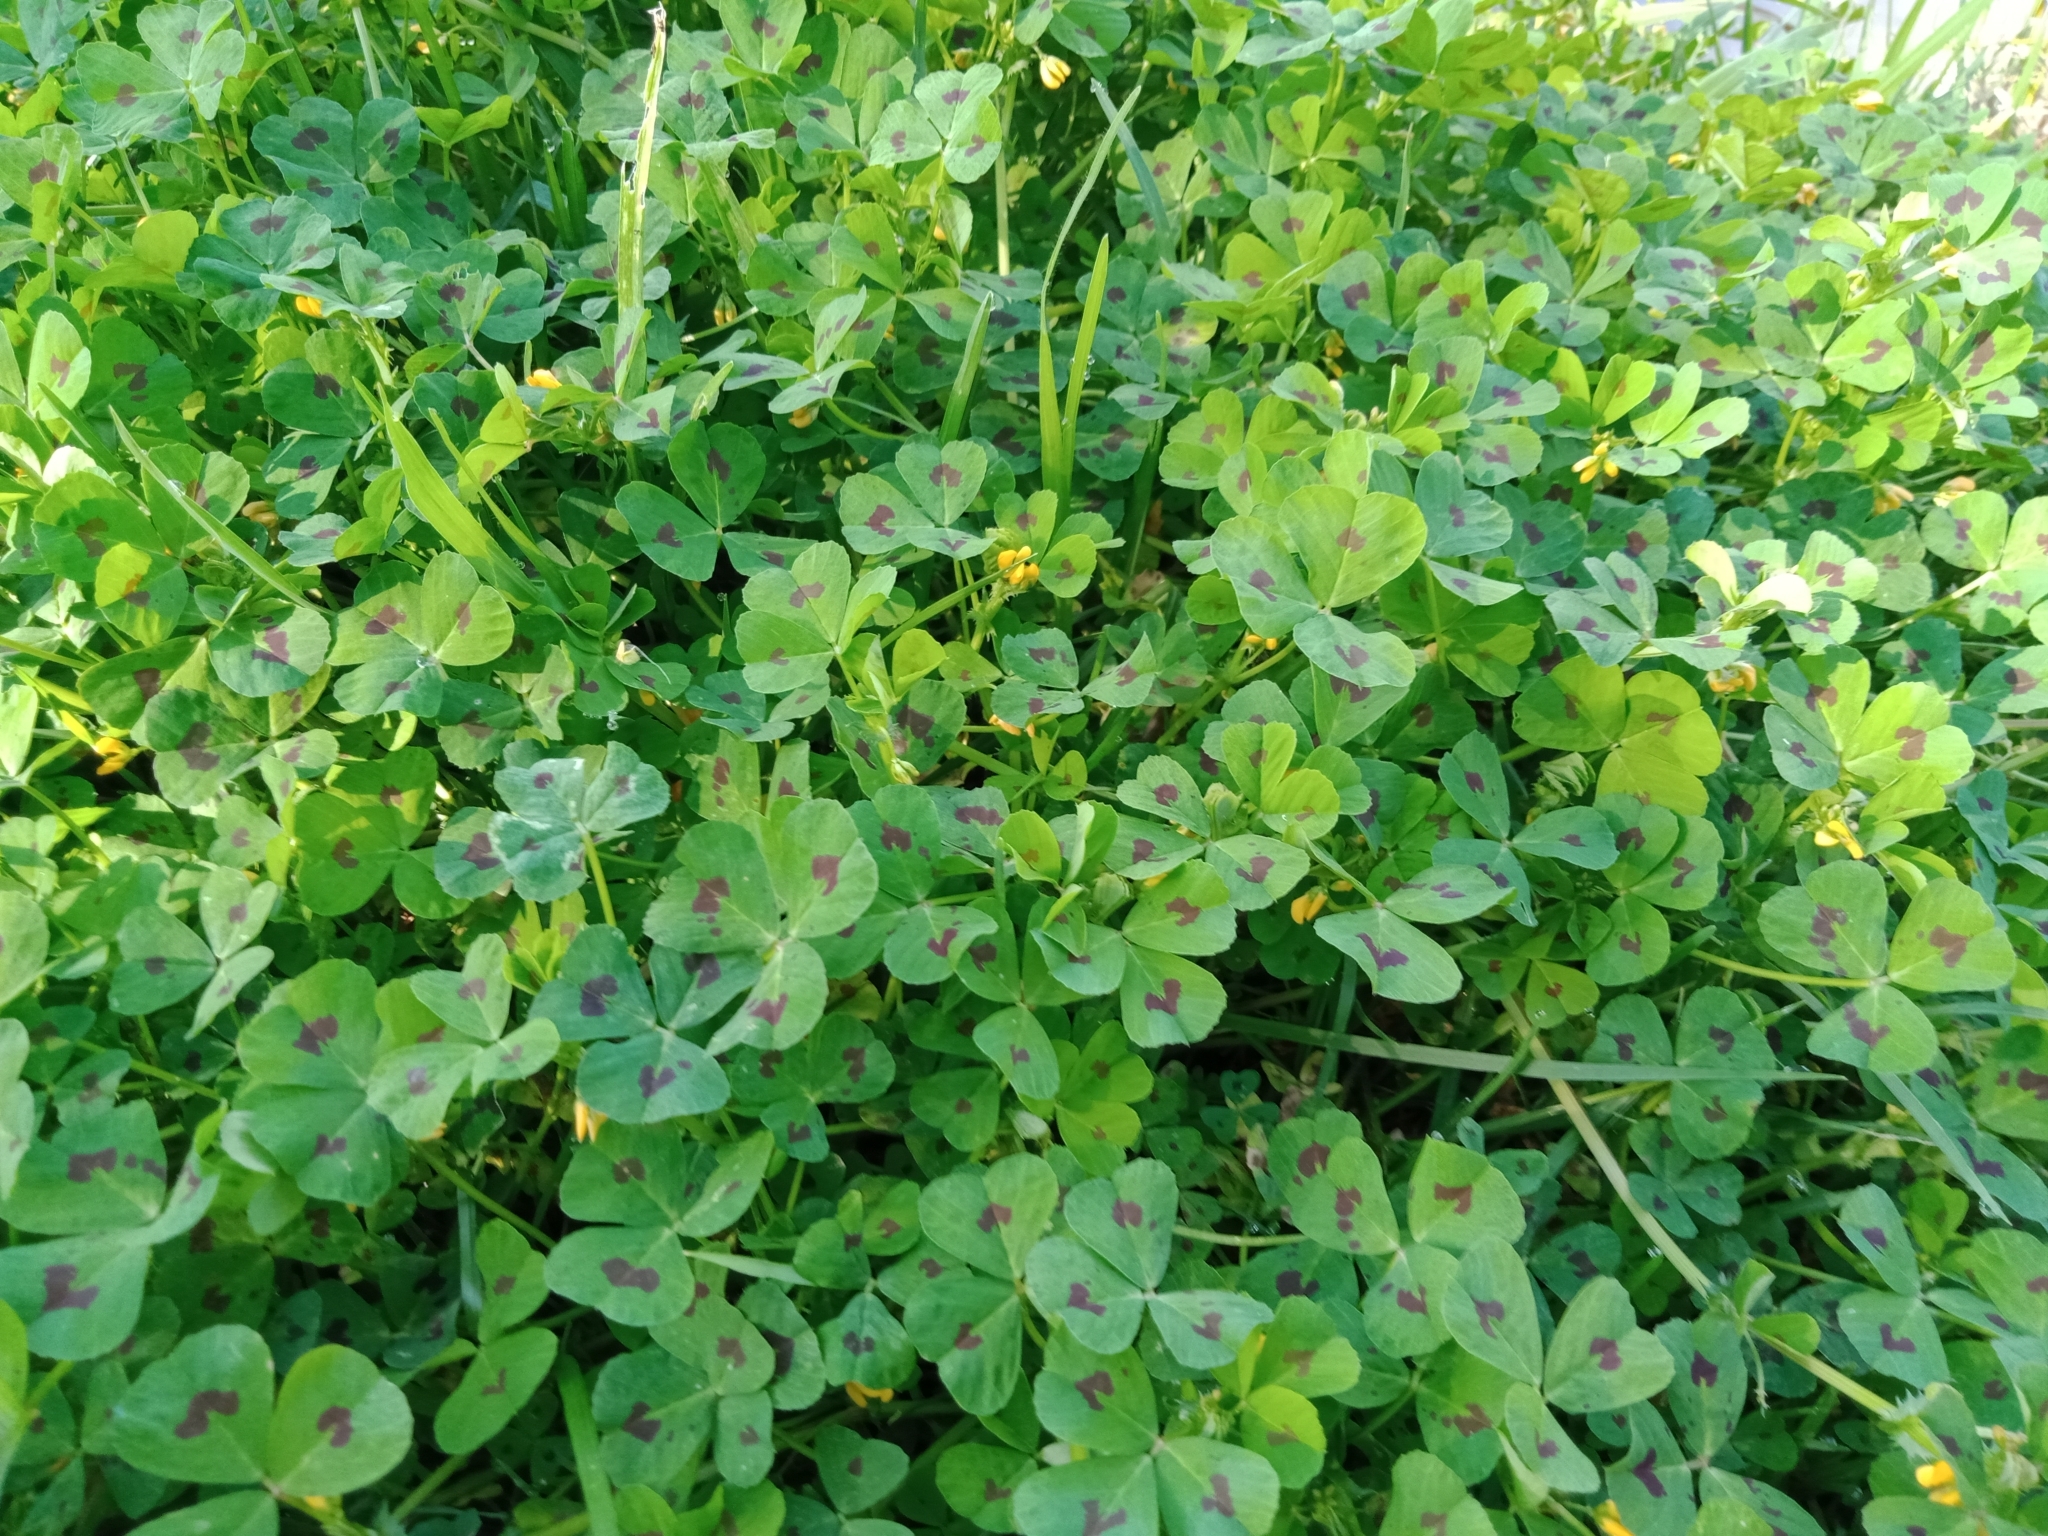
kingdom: Plantae
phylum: Tracheophyta
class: Magnoliopsida
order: Fabales
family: Fabaceae
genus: Medicago
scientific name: Medicago arabica
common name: Spotted medick
